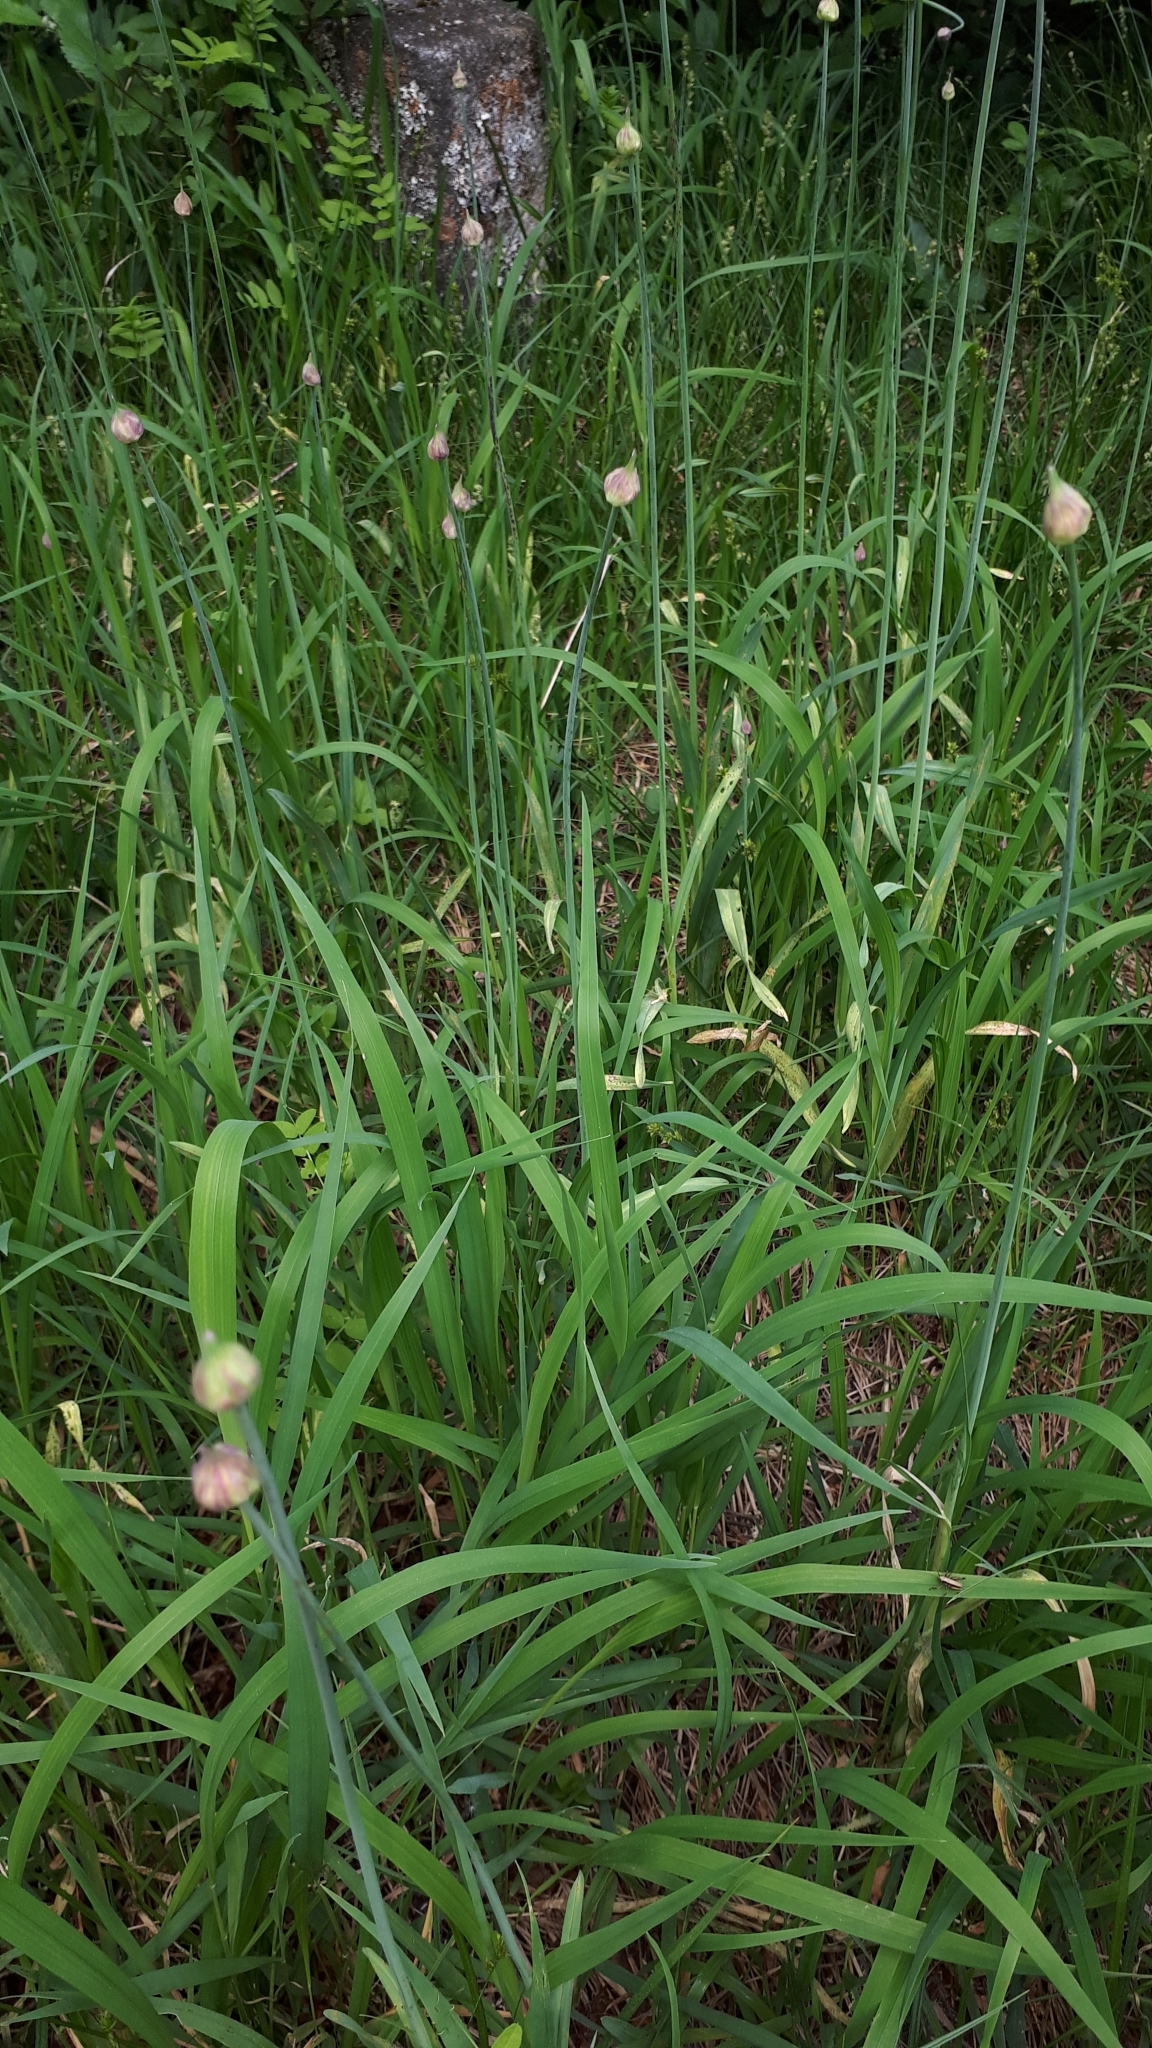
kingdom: Plantae
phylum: Tracheophyta
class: Liliopsida
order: Asparagales
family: Amaryllidaceae
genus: Allium
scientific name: Allium scorodoprasum
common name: Sand leek
